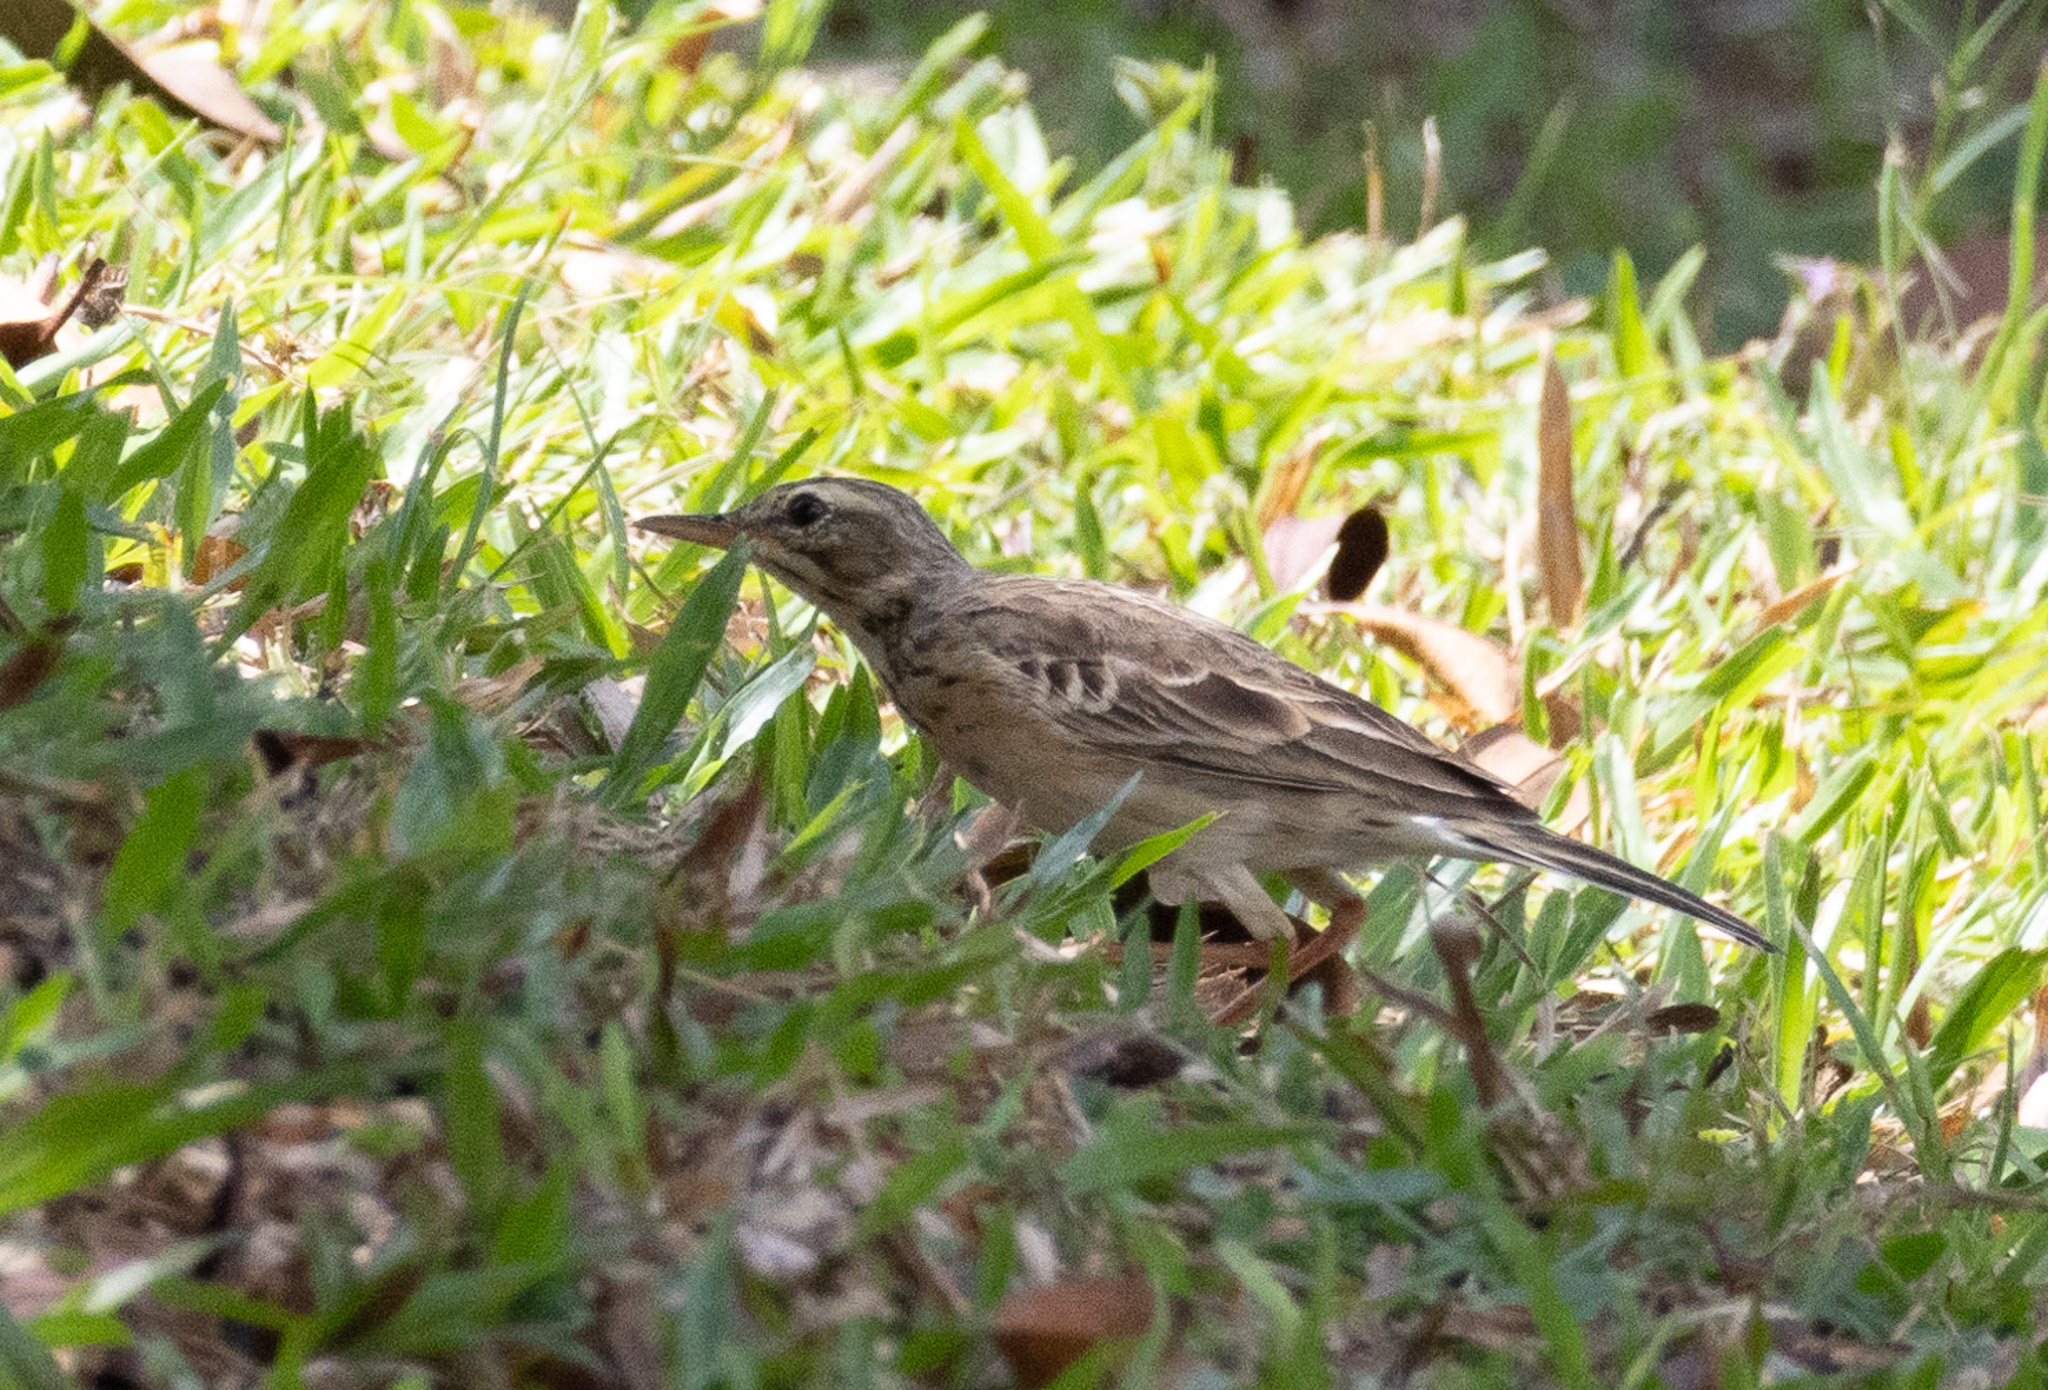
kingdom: Animalia
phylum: Chordata
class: Aves
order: Passeriformes
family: Motacillidae
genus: Anthus
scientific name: Anthus rufulus
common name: Paddyfield pipit
